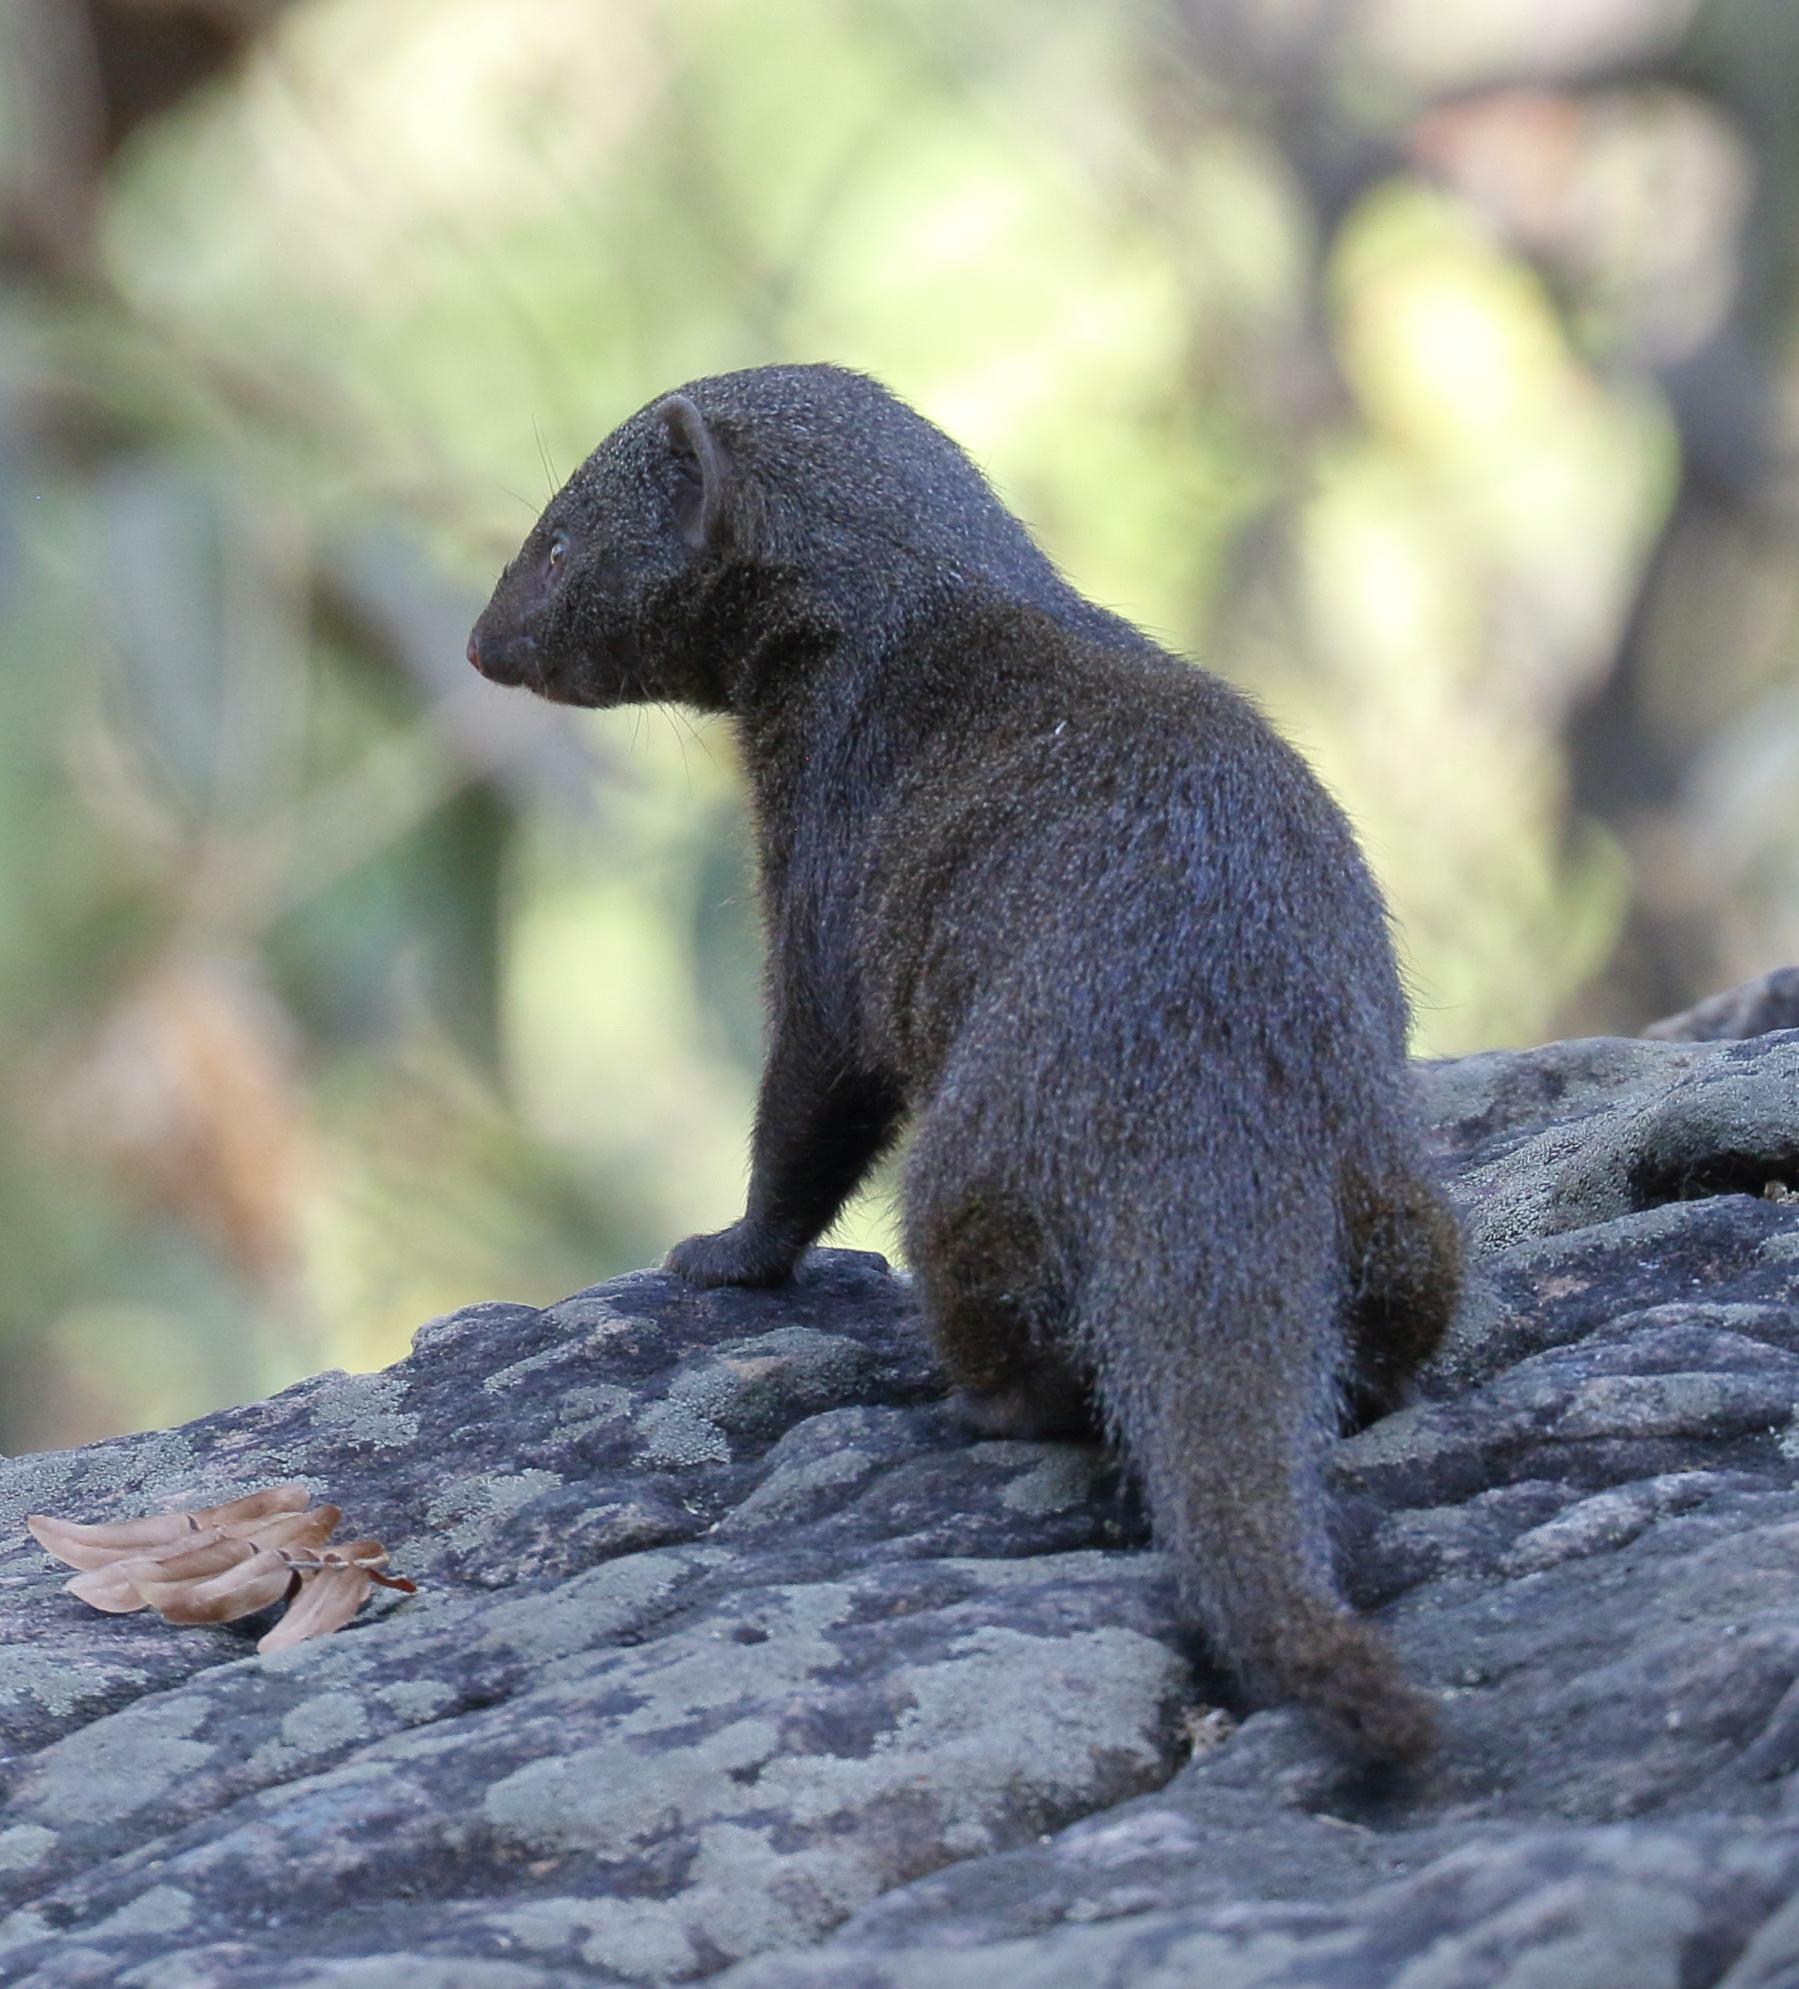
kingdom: Animalia
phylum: Chordata
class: Mammalia
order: Carnivora
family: Herpestidae
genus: Helogale
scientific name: Helogale parvula
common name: Common dwarf mongoose
